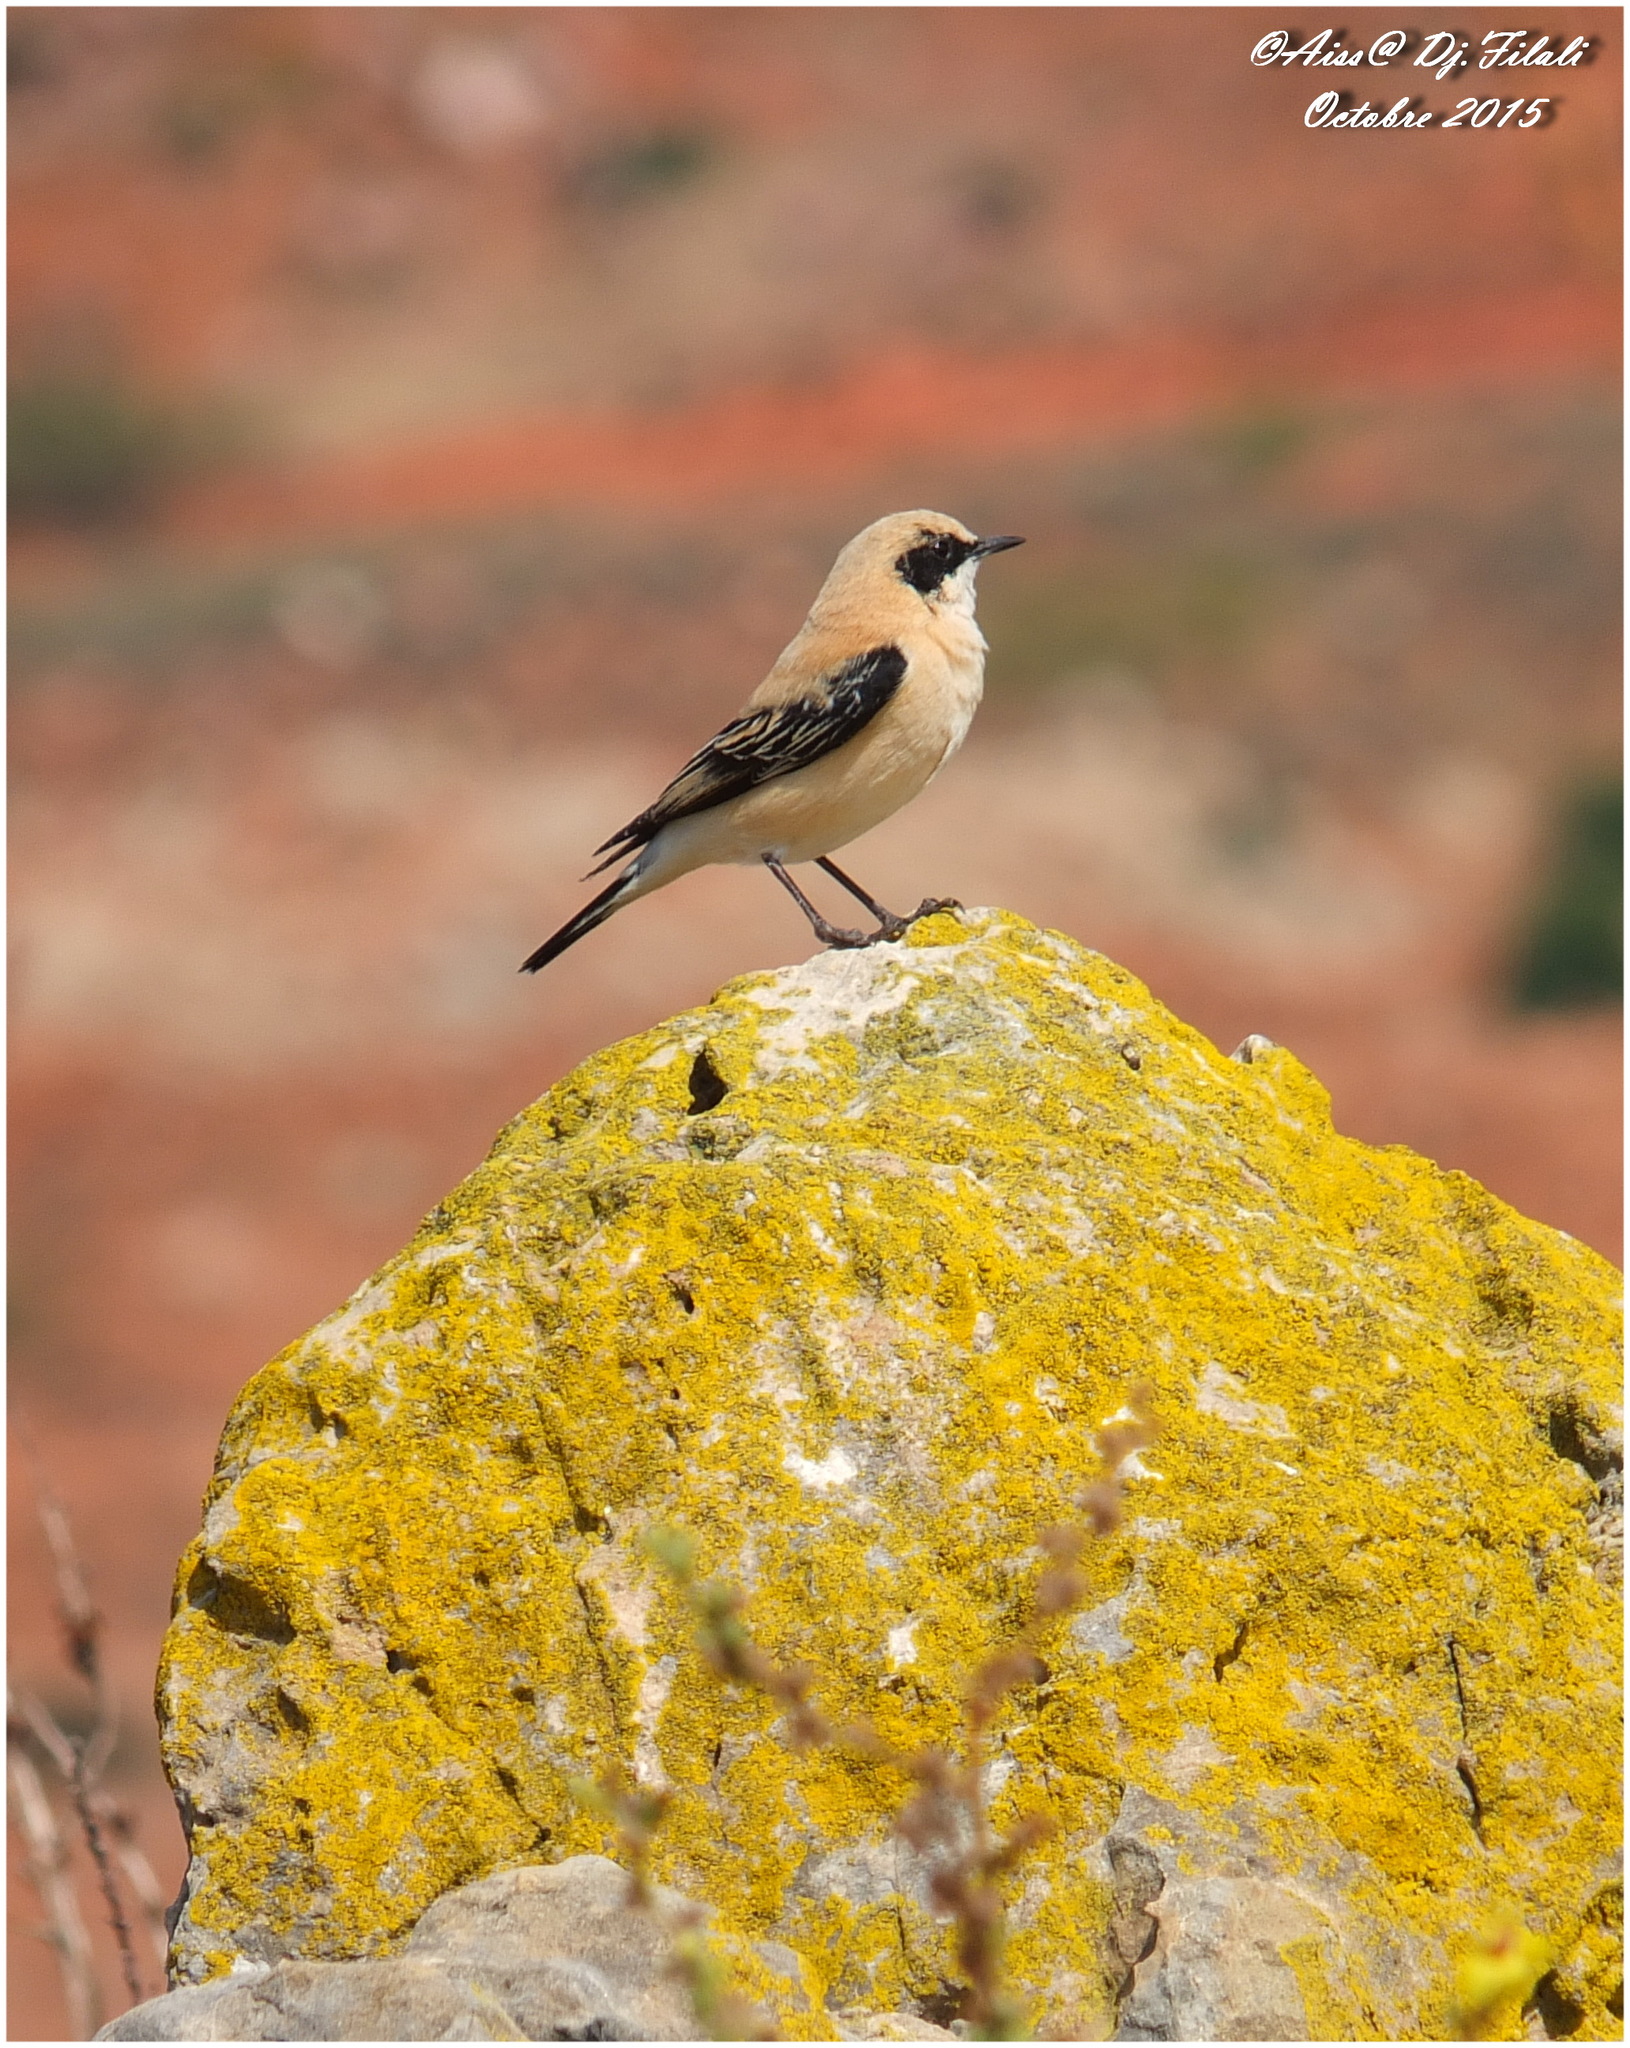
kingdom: Animalia
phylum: Chordata
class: Aves
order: Passeriformes
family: Muscicapidae
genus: Oenanthe
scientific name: Oenanthe hispanica
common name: Black-eared wheatear
